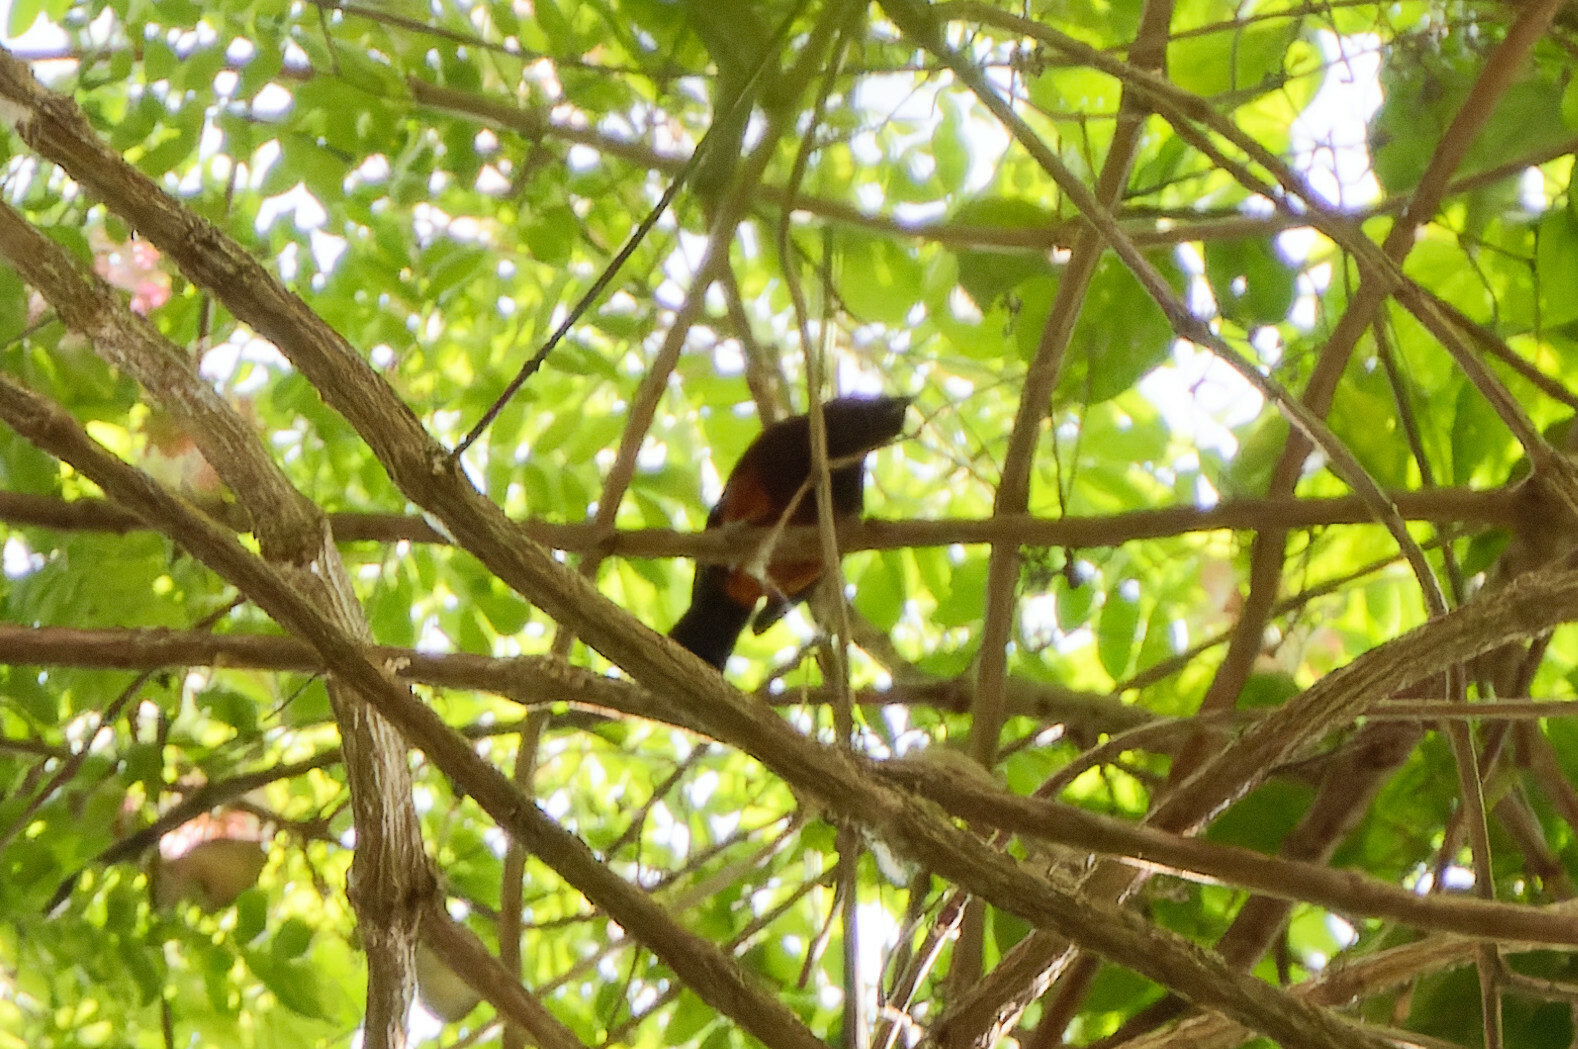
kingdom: Animalia
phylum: Chordata
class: Aves
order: Passeriformes
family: Icteridae
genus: Icterus
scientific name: Icterus bonana
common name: Martinique oriole
